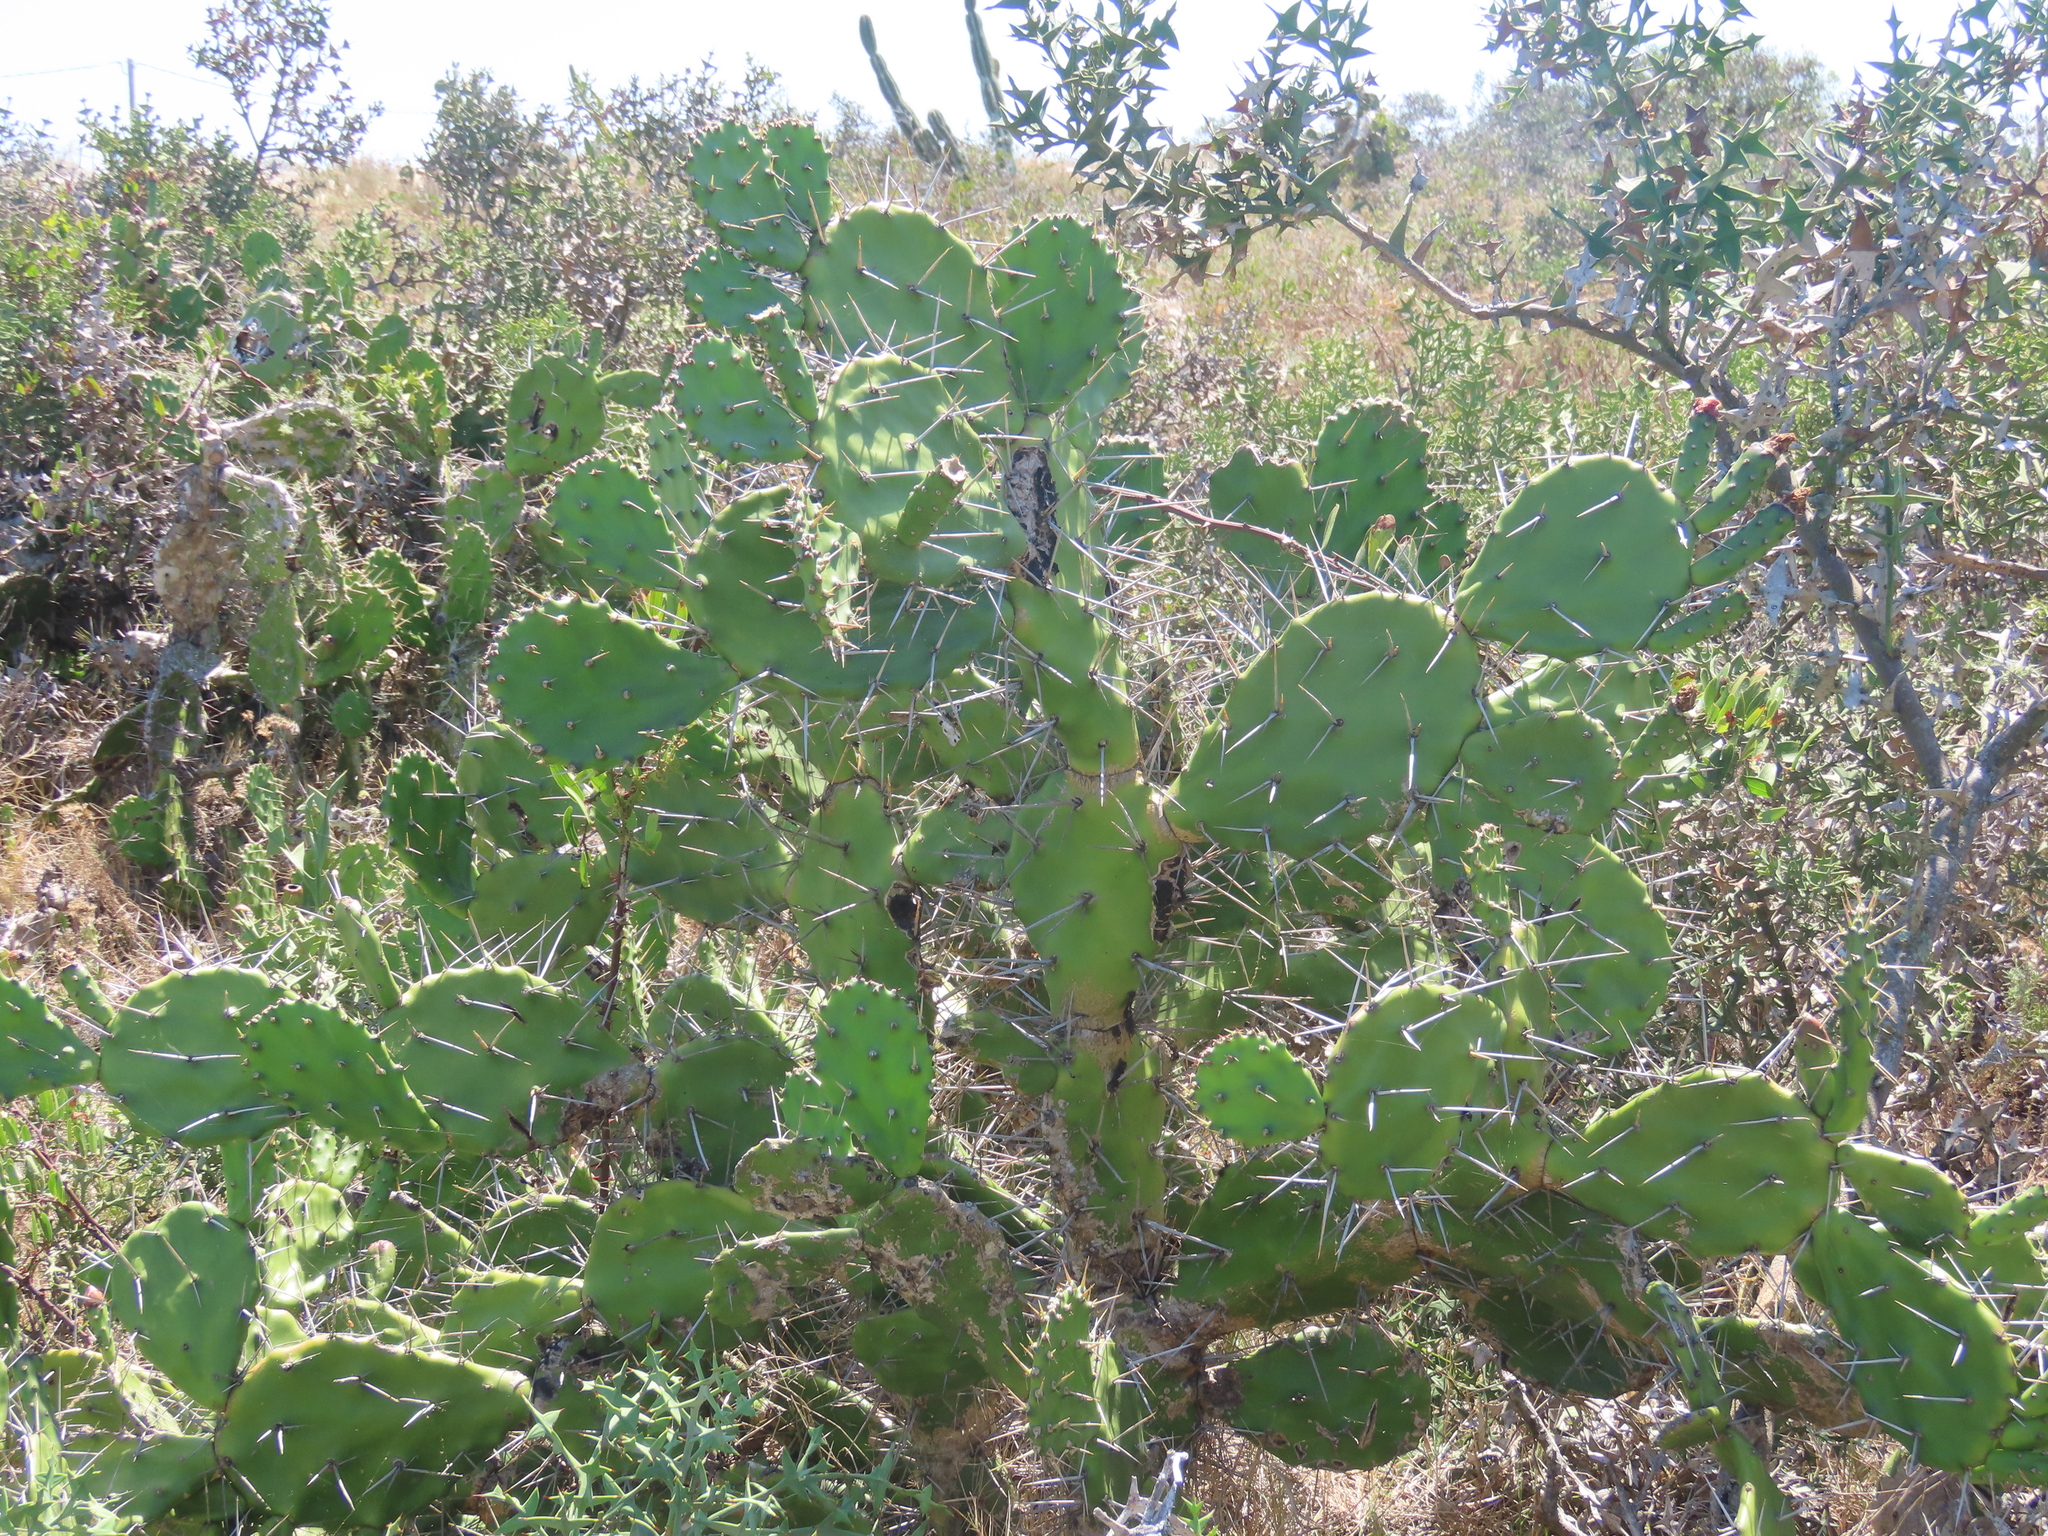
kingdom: Plantae
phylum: Tracheophyta
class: Magnoliopsida
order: Caryophyllales
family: Cactaceae
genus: Opuntia
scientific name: Opuntia arechavaletae
